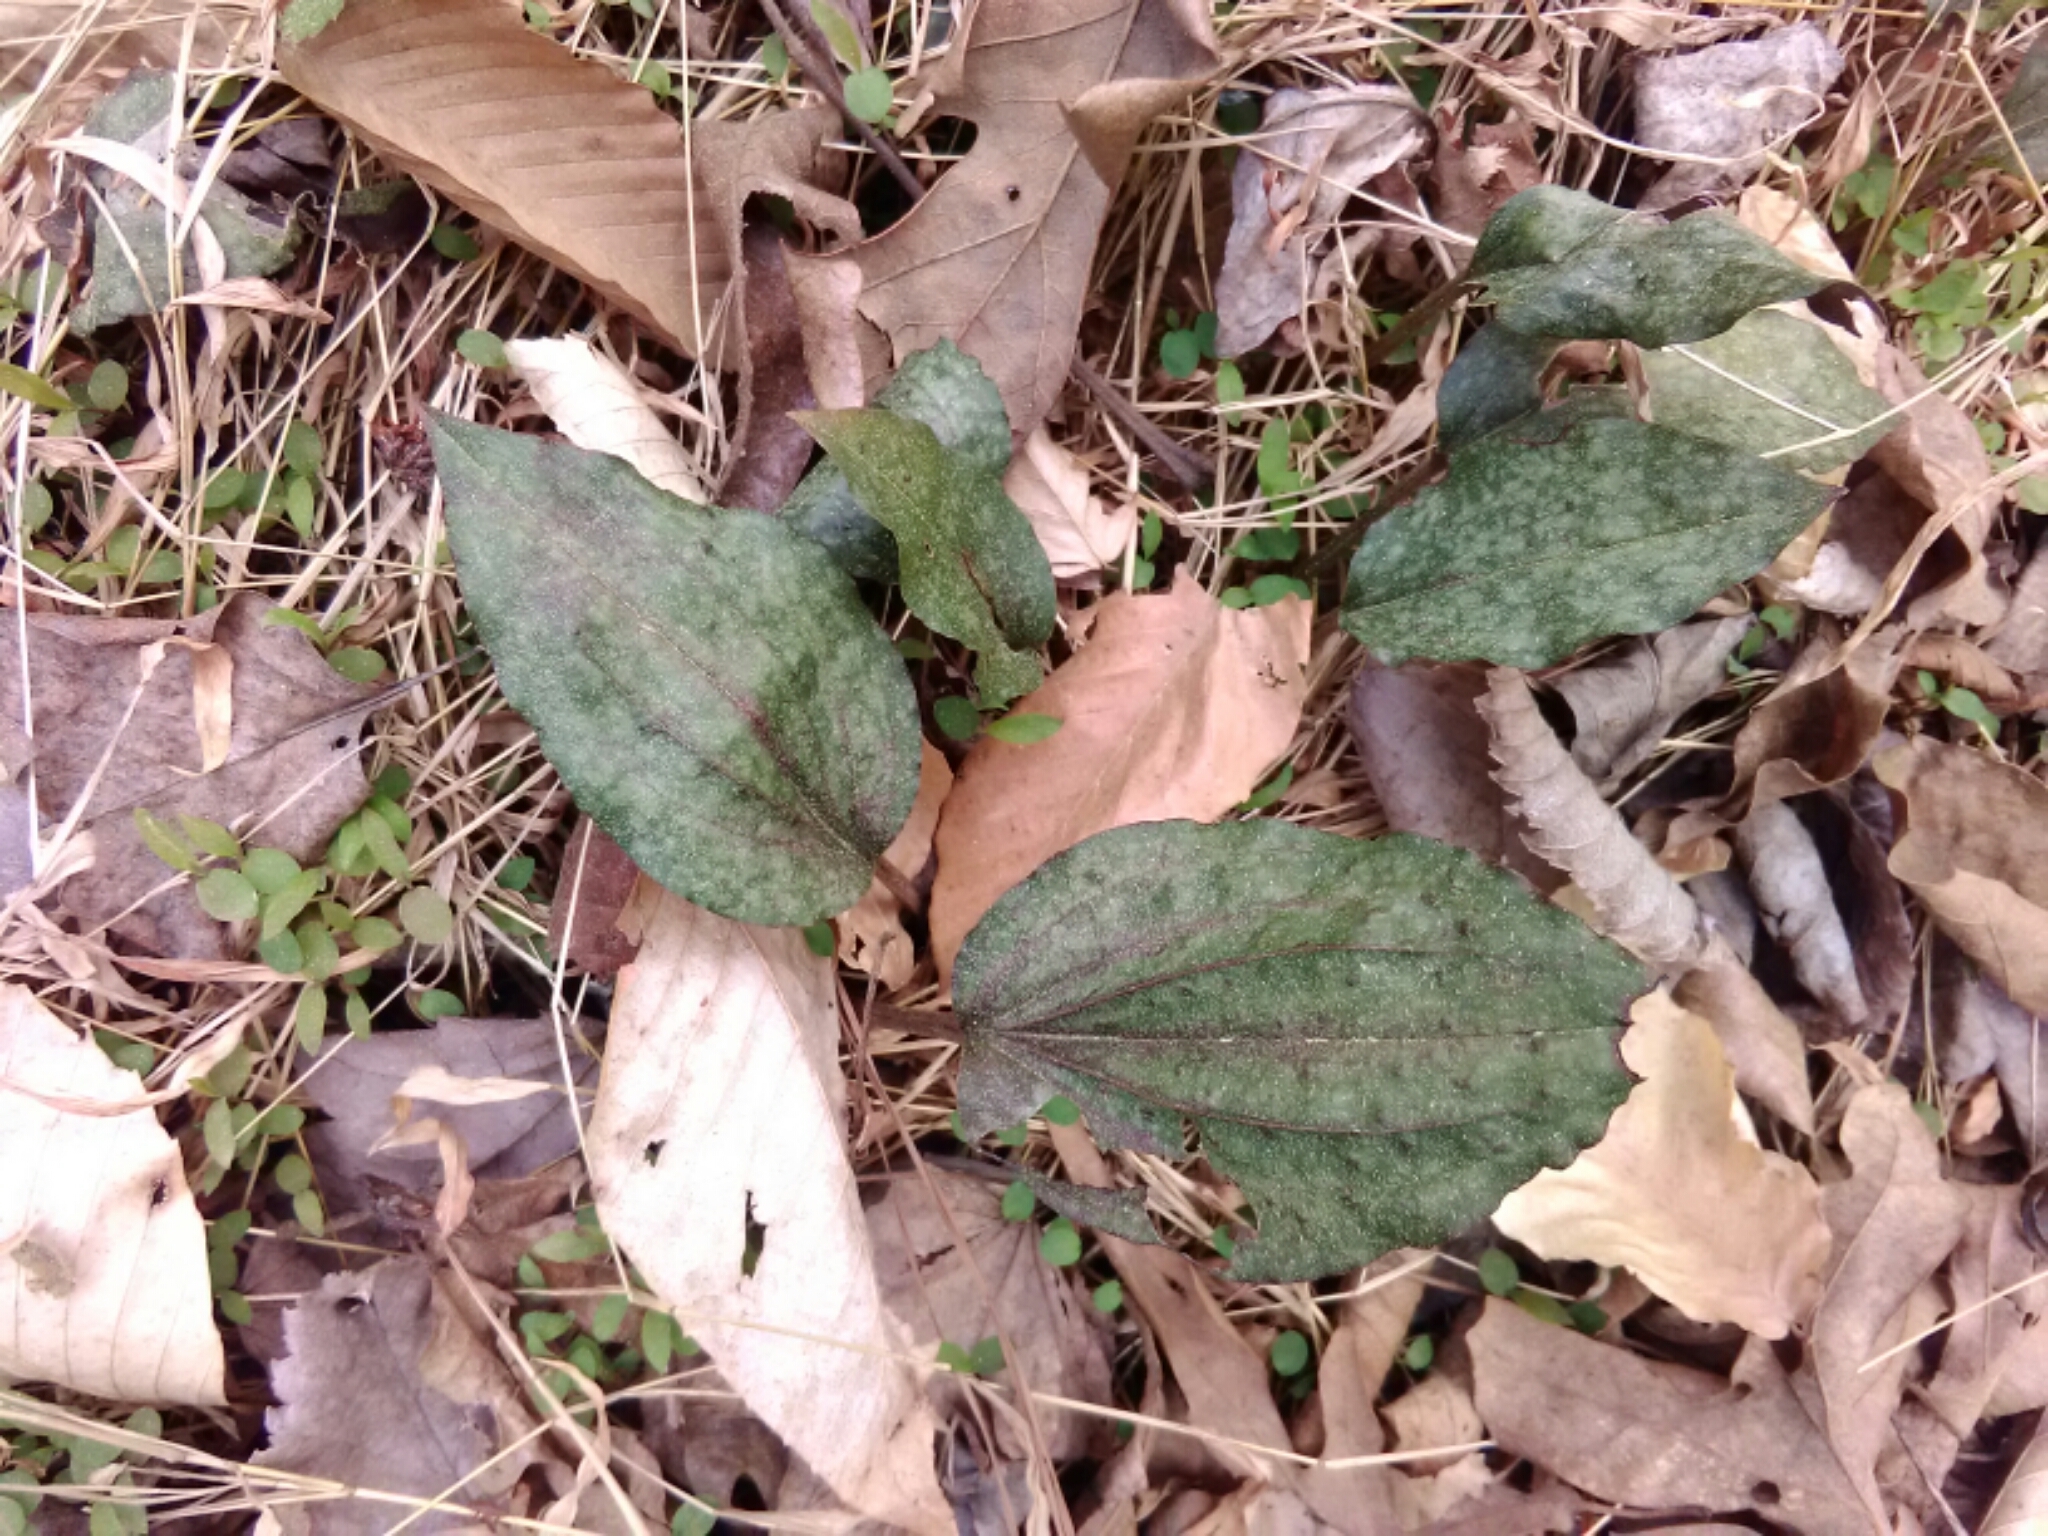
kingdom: Plantae
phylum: Tracheophyta
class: Liliopsida
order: Asparagales
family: Orchidaceae
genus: Tipularia
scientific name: Tipularia discolor
